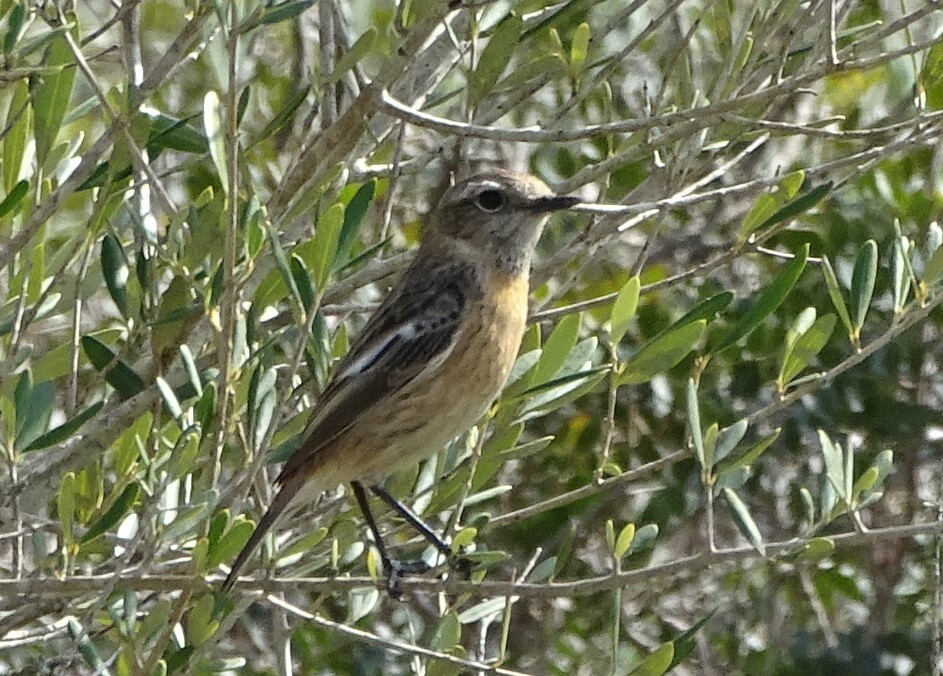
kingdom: Animalia
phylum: Chordata
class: Aves
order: Passeriformes
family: Muscicapidae
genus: Saxicola
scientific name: Saxicola rubicola
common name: European stonechat
